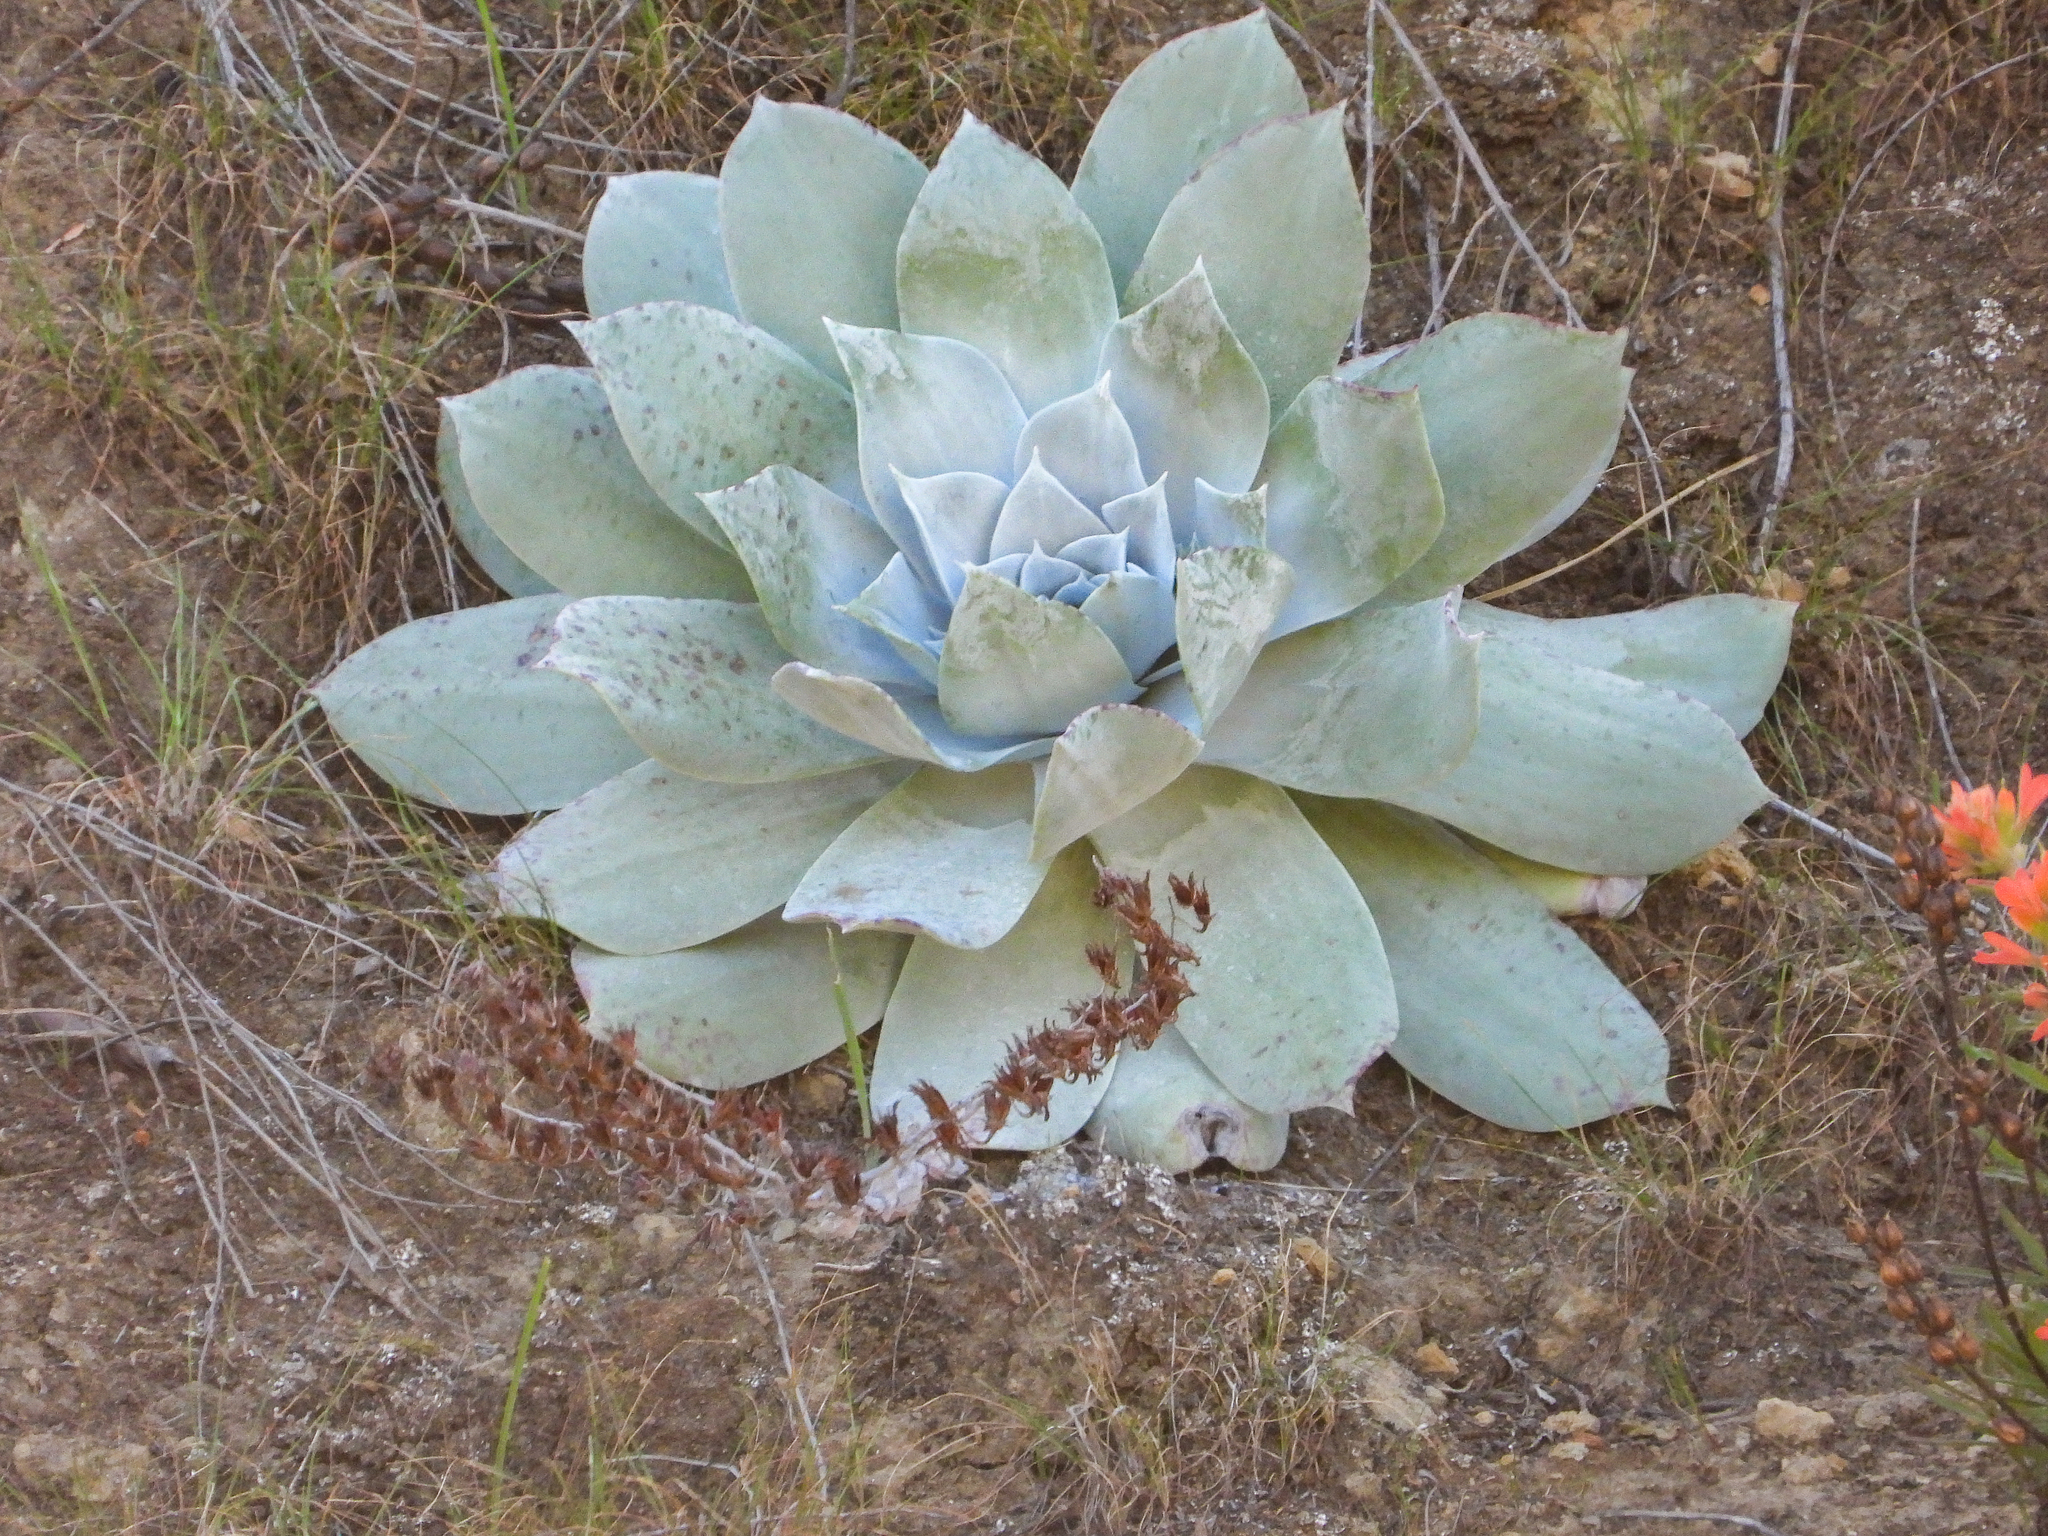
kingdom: Plantae
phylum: Tracheophyta
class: Magnoliopsida
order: Saxifragales
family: Crassulaceae
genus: Dudleya
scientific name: Dudleya pulverulenta
